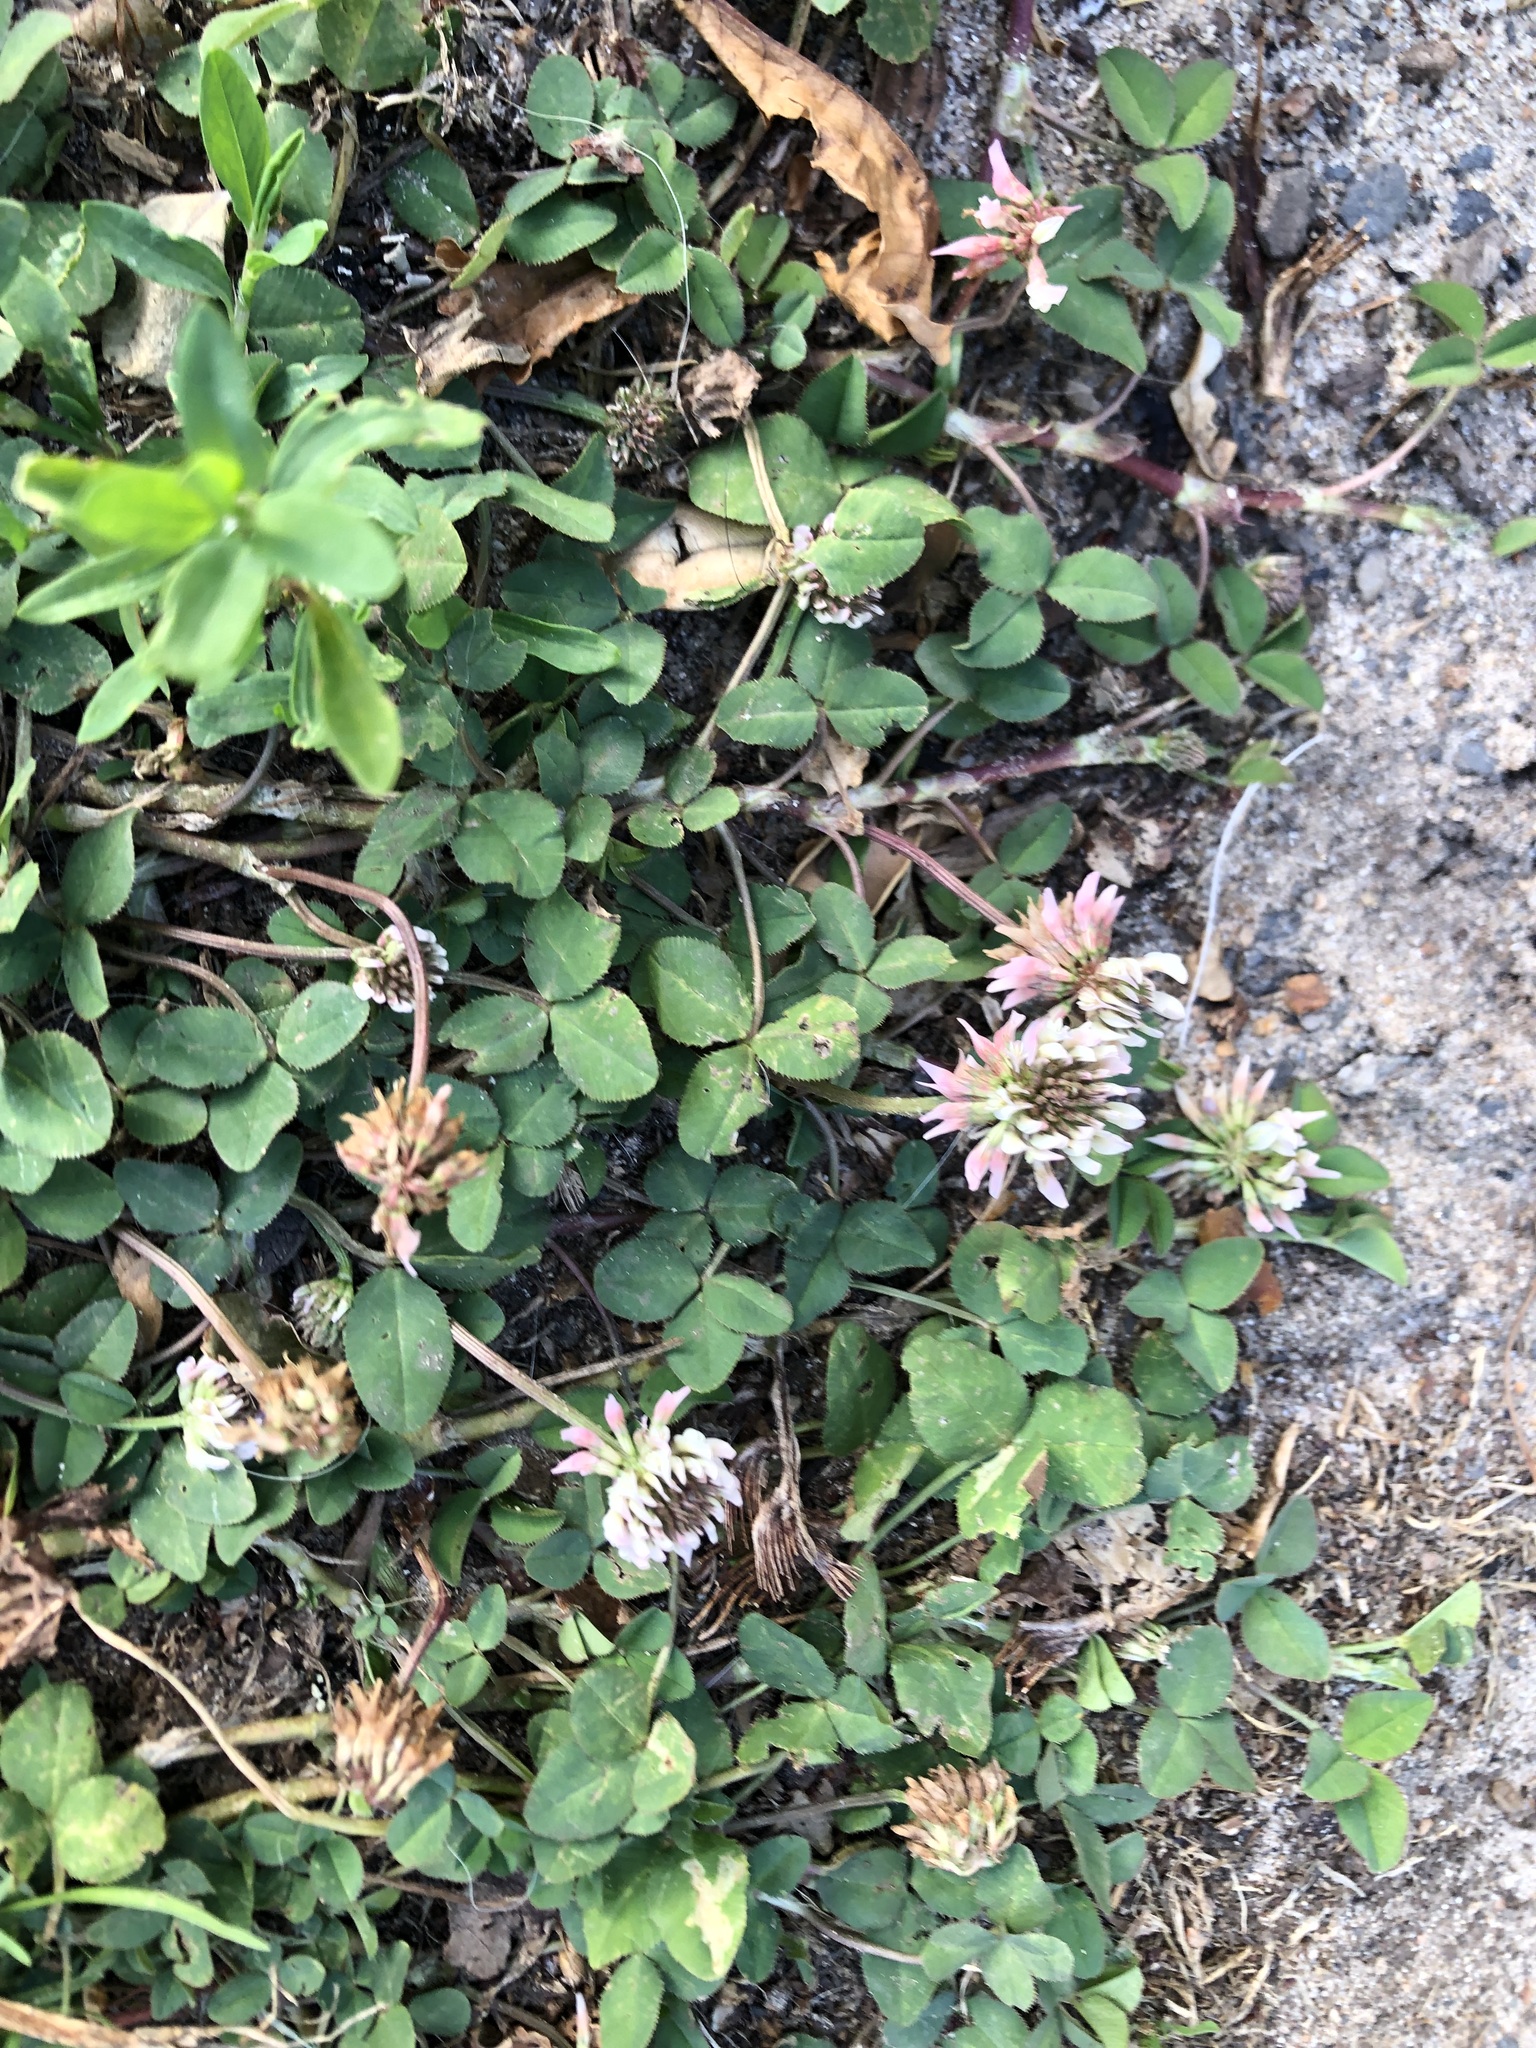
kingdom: Plantae
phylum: Tracheophyta
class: Magnoliopsida
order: Fabales
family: Fabaceae
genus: Trifolium
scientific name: Trifolium repens
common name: White clover
